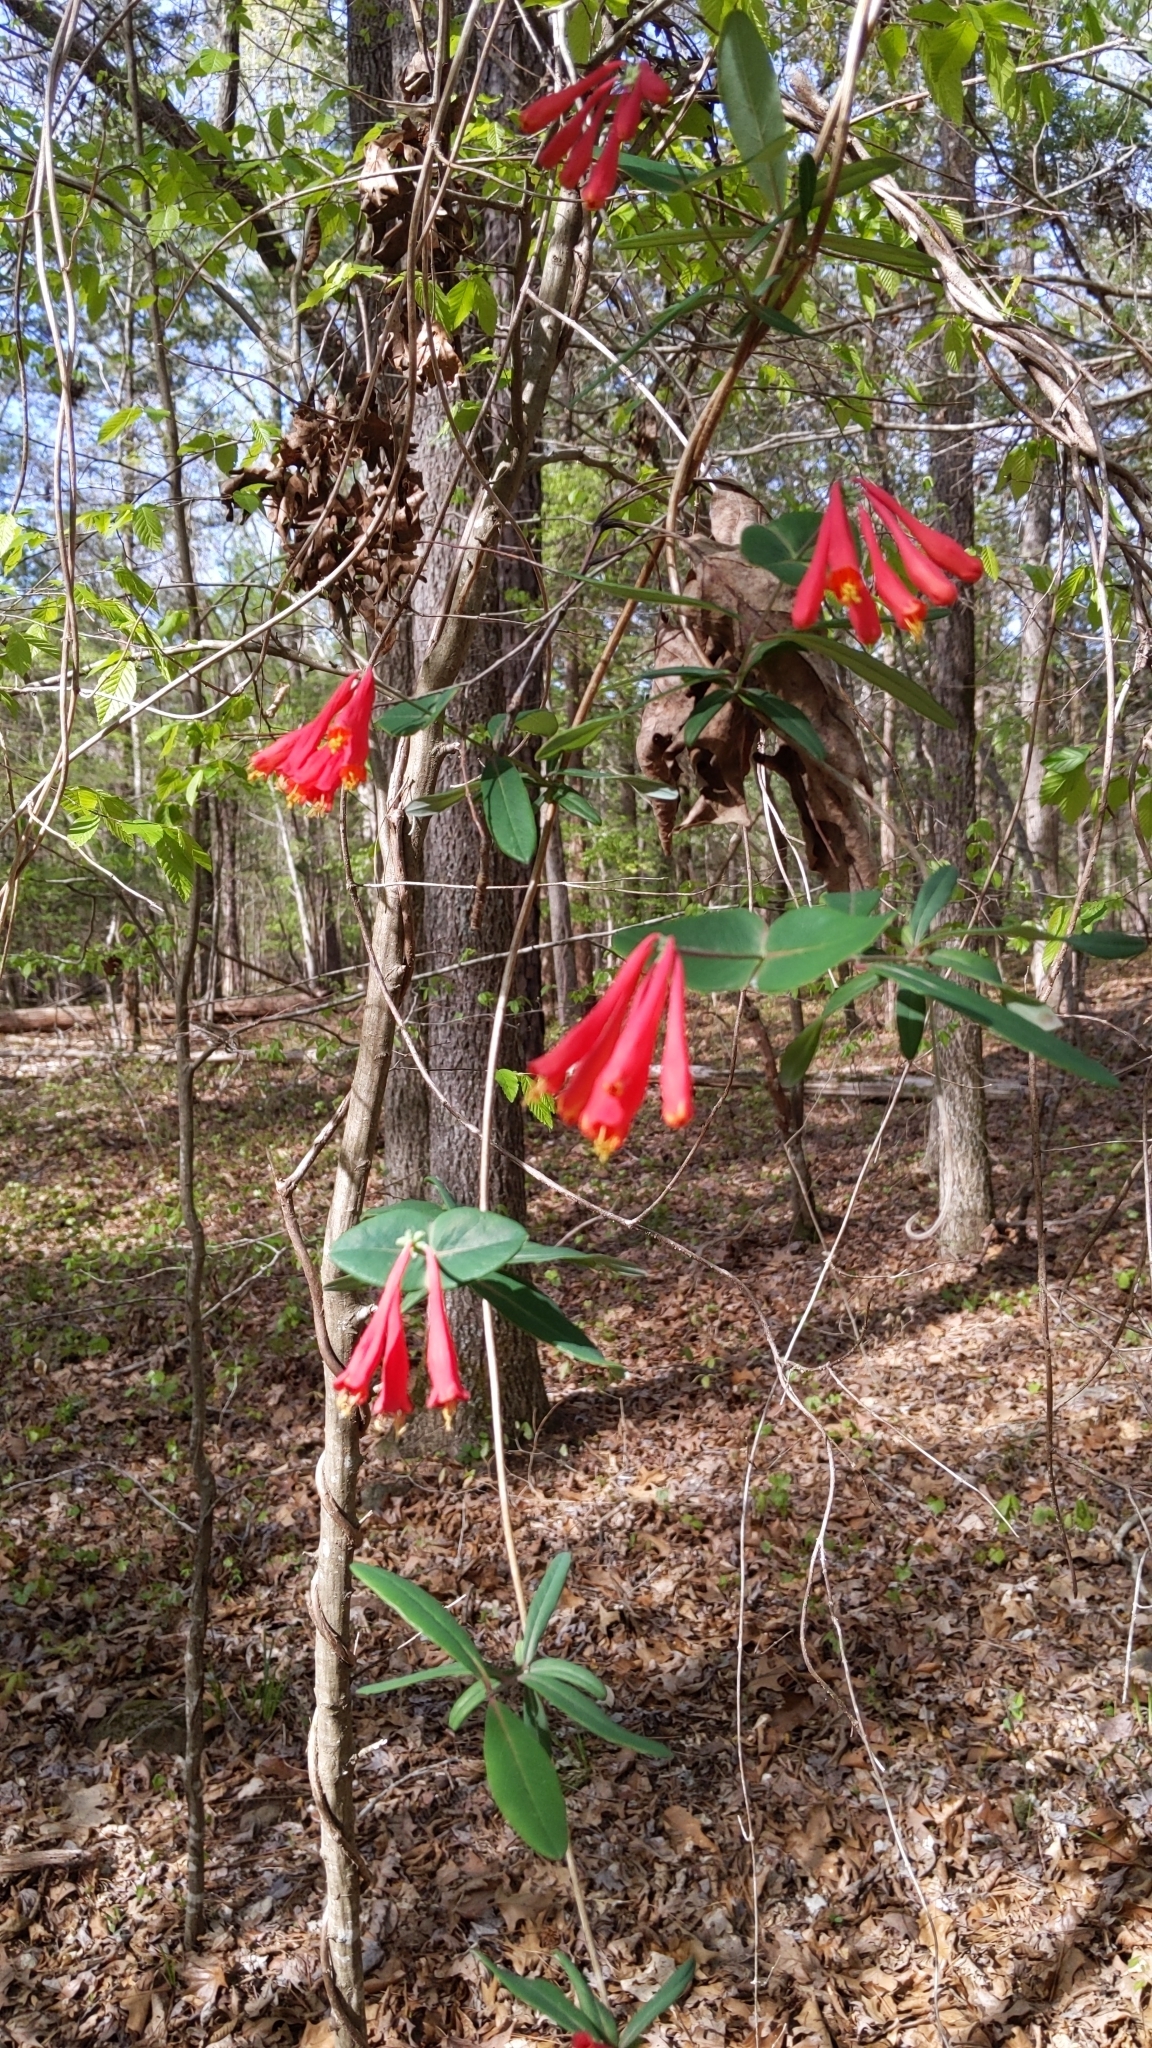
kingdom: Plantae
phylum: Tracheophyta
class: Magnoliopsida
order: Dipsacales
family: Caprifoliaceae
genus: Lonicera
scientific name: Lonicera sempervirens
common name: Coral honeysuckle
